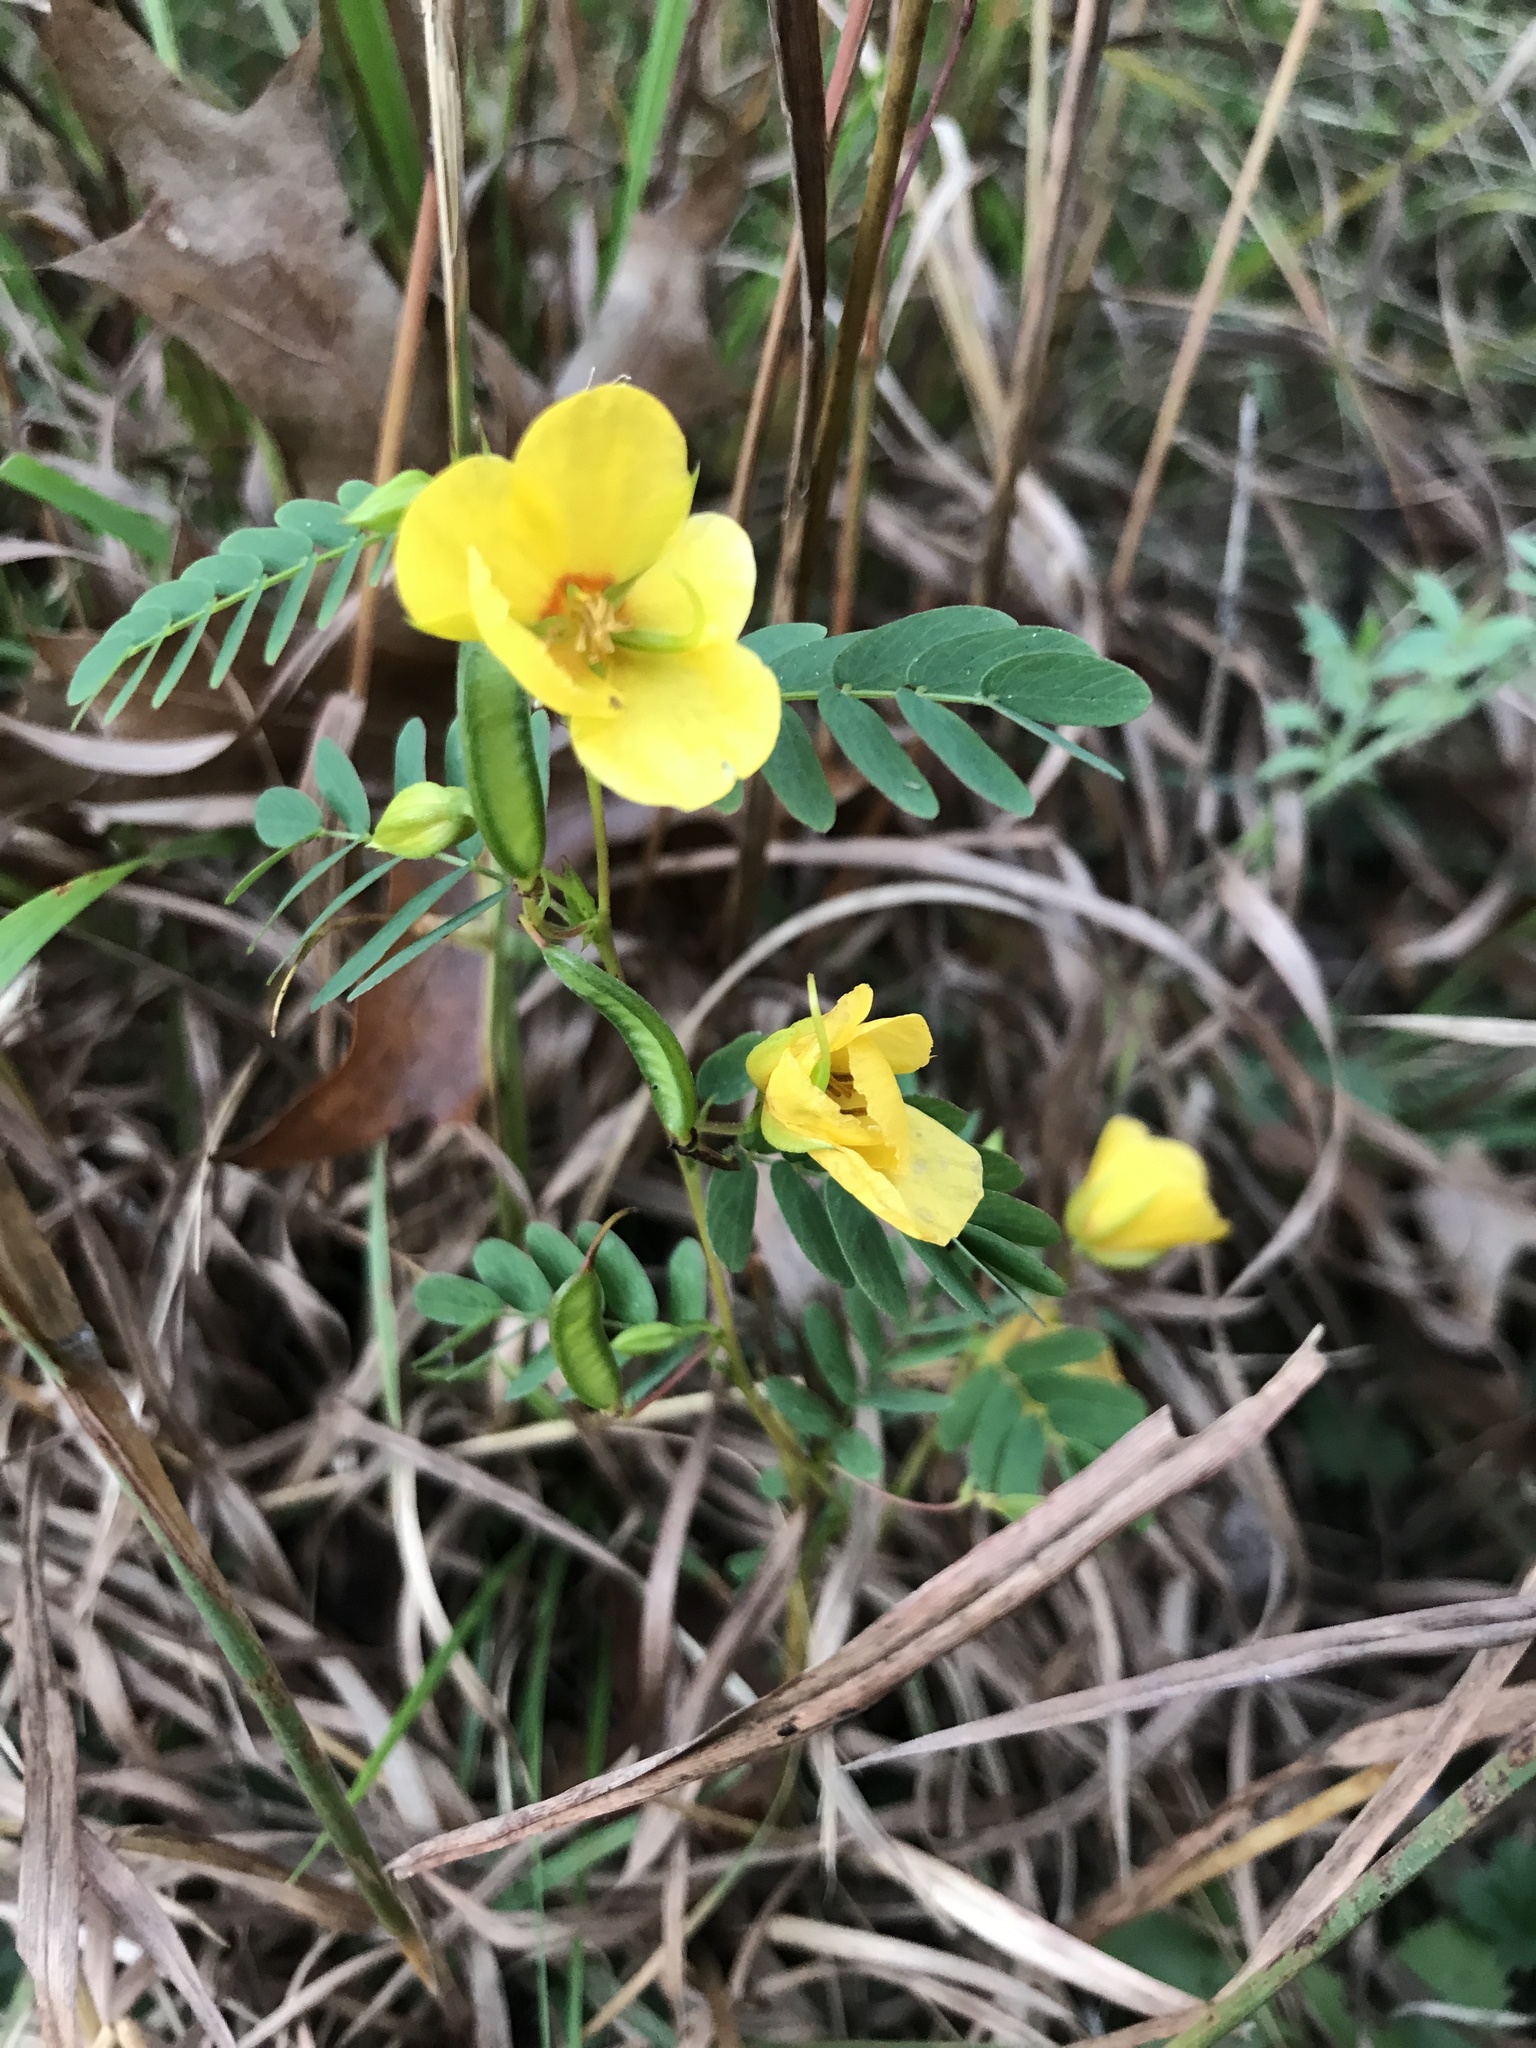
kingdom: Plantae
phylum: Tracheophyta
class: Magnoliopsida
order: Fabales
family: Fabaceae
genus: Chamaecrista
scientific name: Chamaecrista fasciculata
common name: Golden cassia
